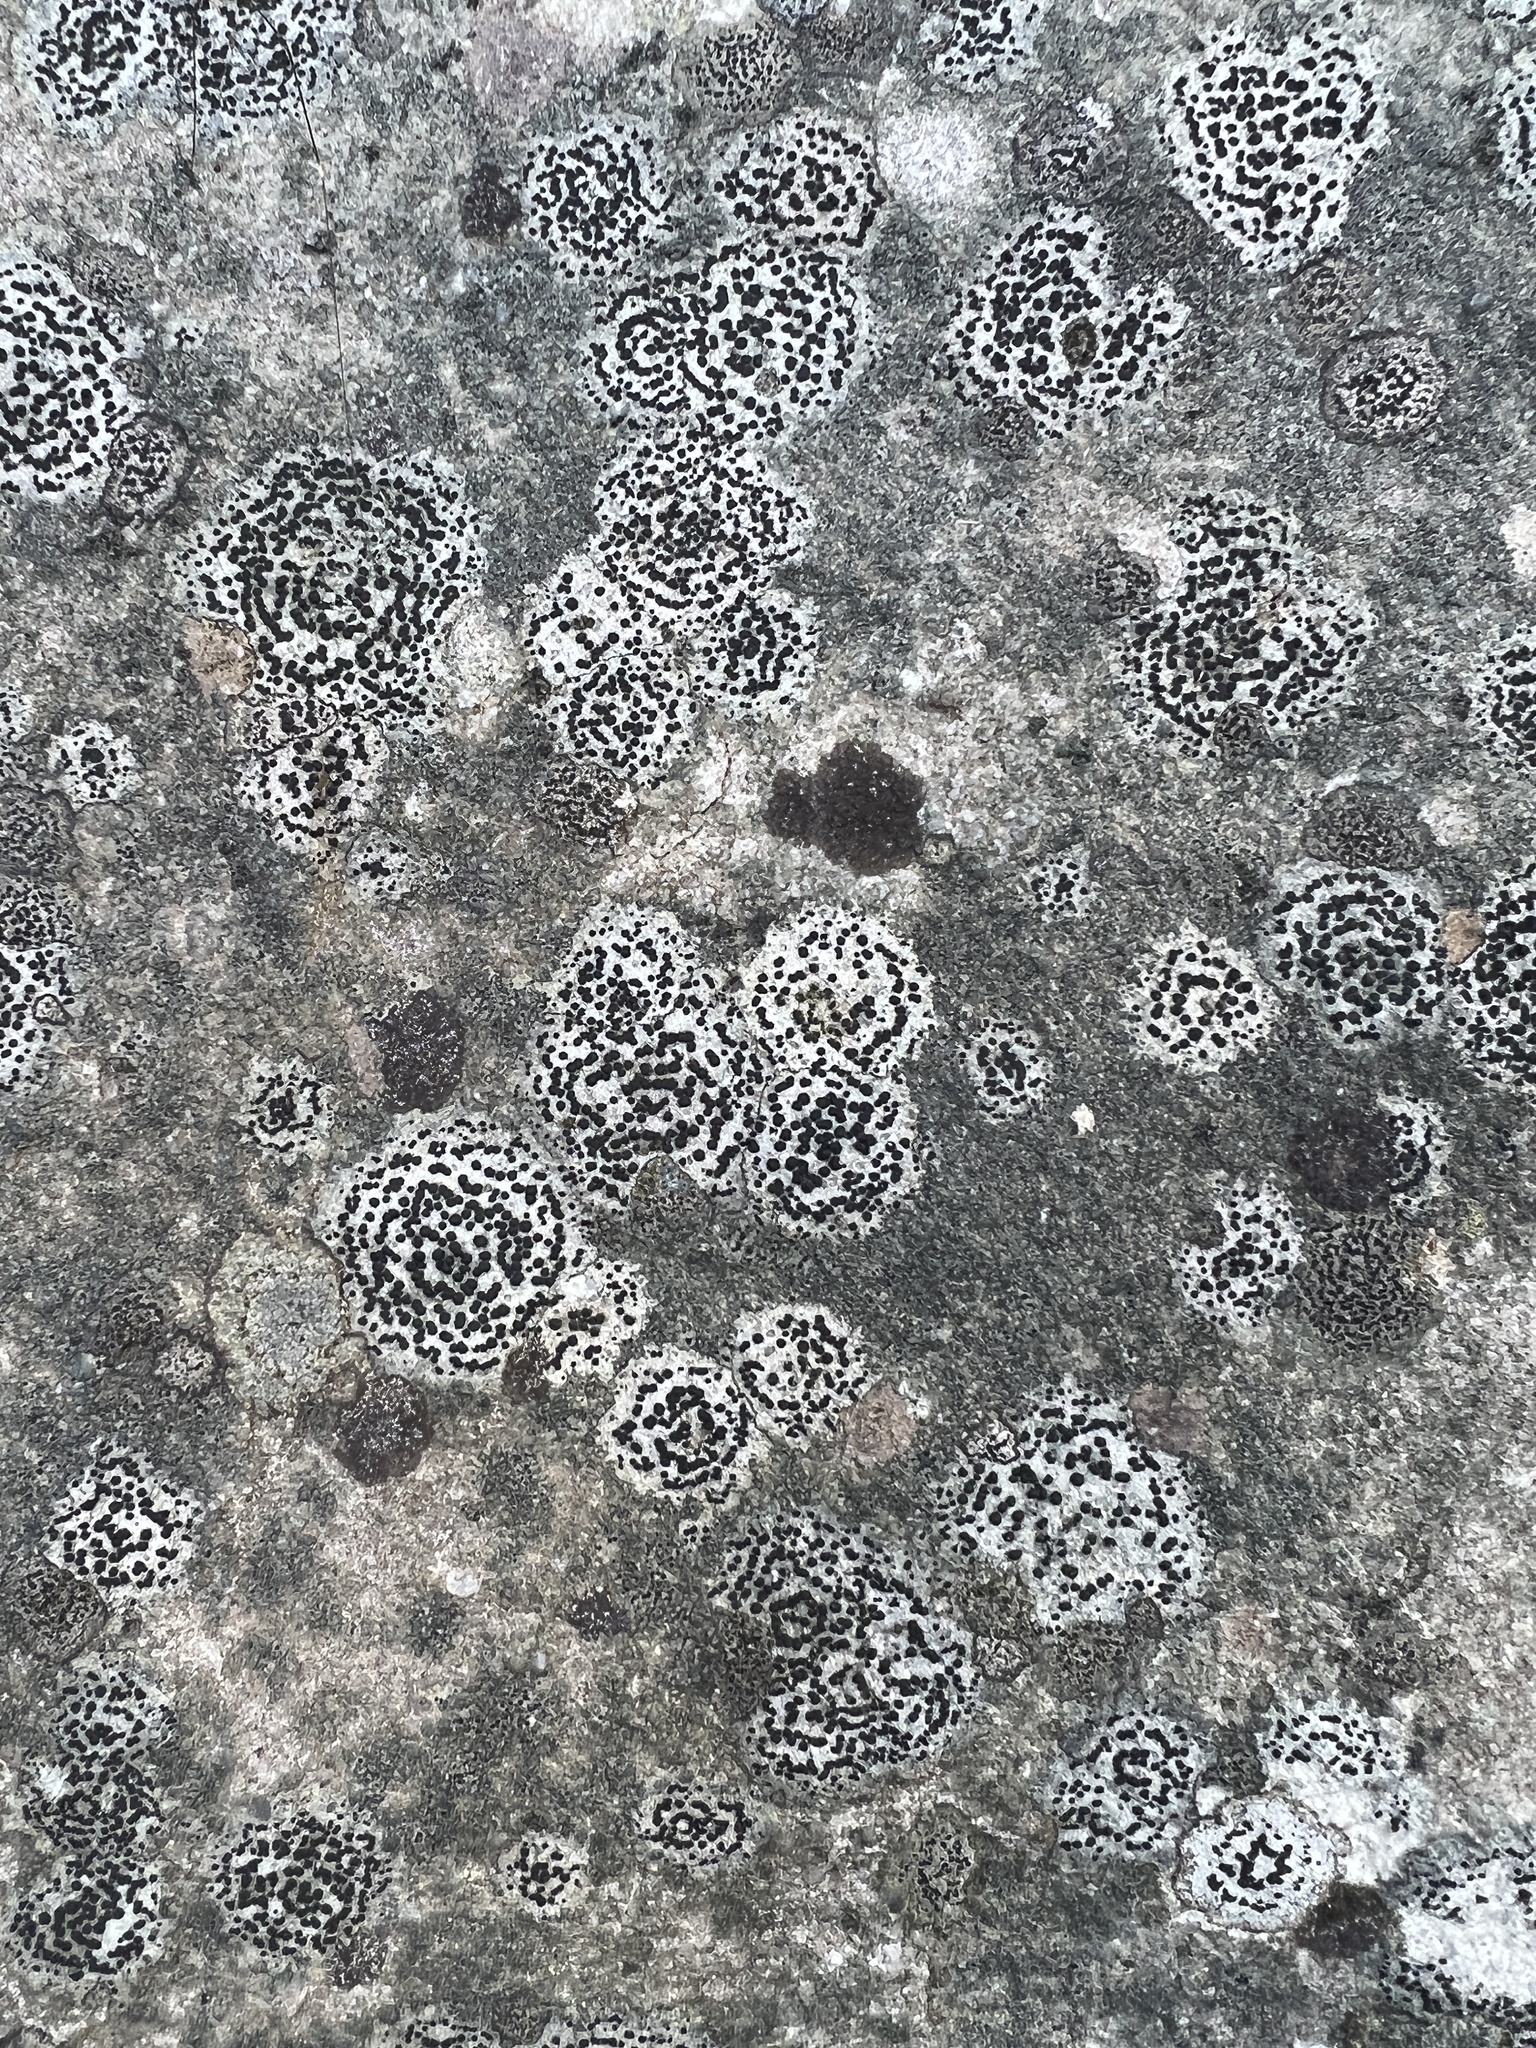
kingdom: Fungi
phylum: Ascomycota
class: Lecanoromycetes
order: Lecideales
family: Lecideaceae
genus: Porpidia
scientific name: Porpidia crustulata
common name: Concentric boulder lichen
